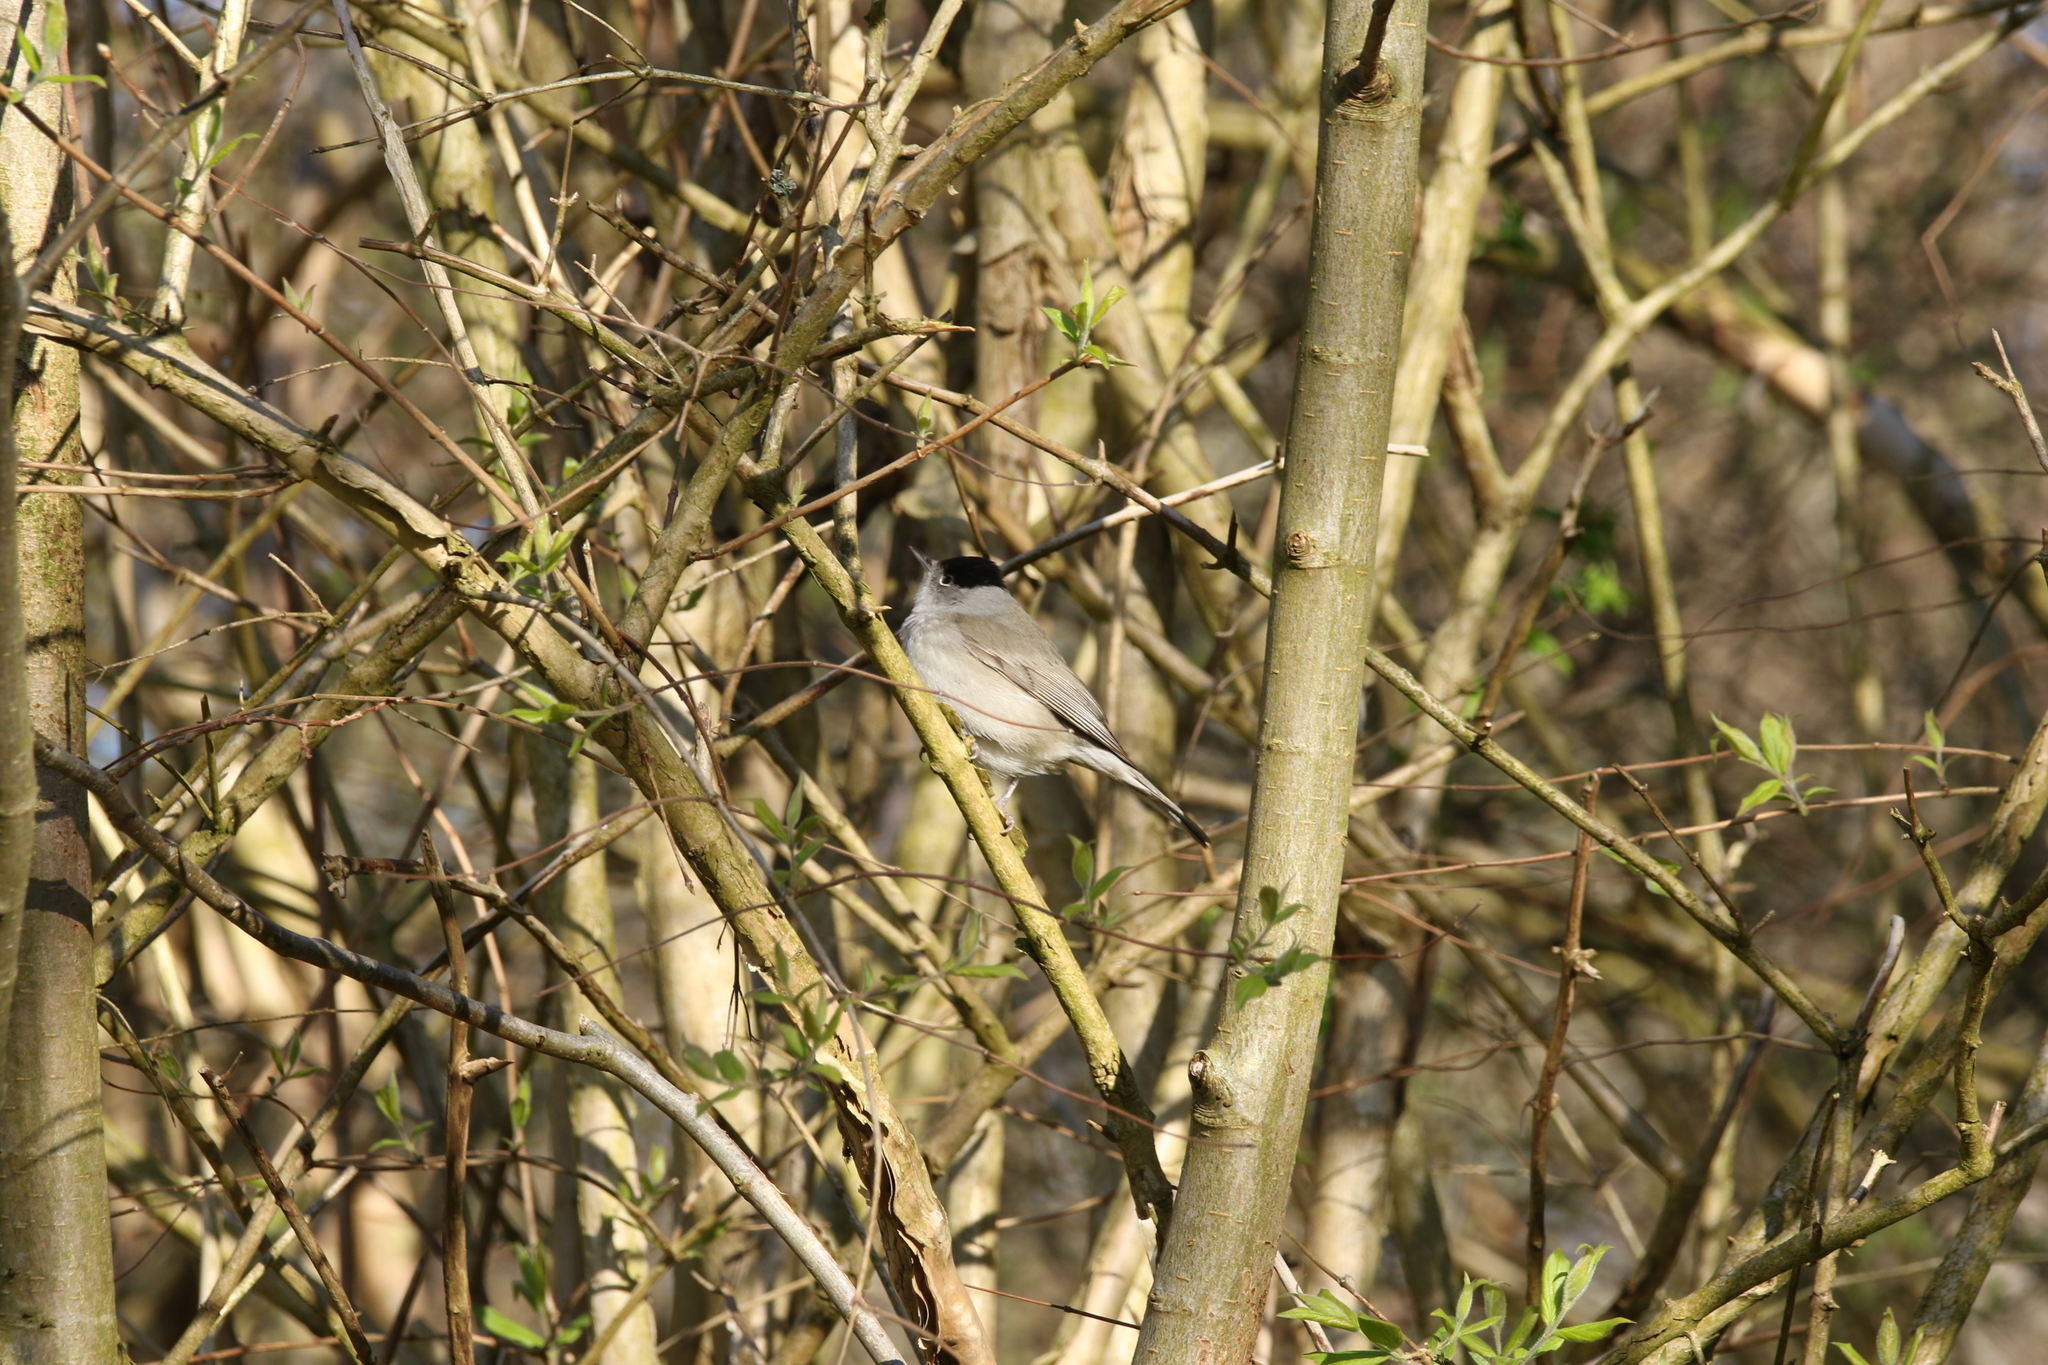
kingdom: Animalia
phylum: Chordata
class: Aves
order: Passeriformes
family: Sylviidae
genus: Sylvia
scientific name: Sylvia atricapilla
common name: Eurasian blackcap
